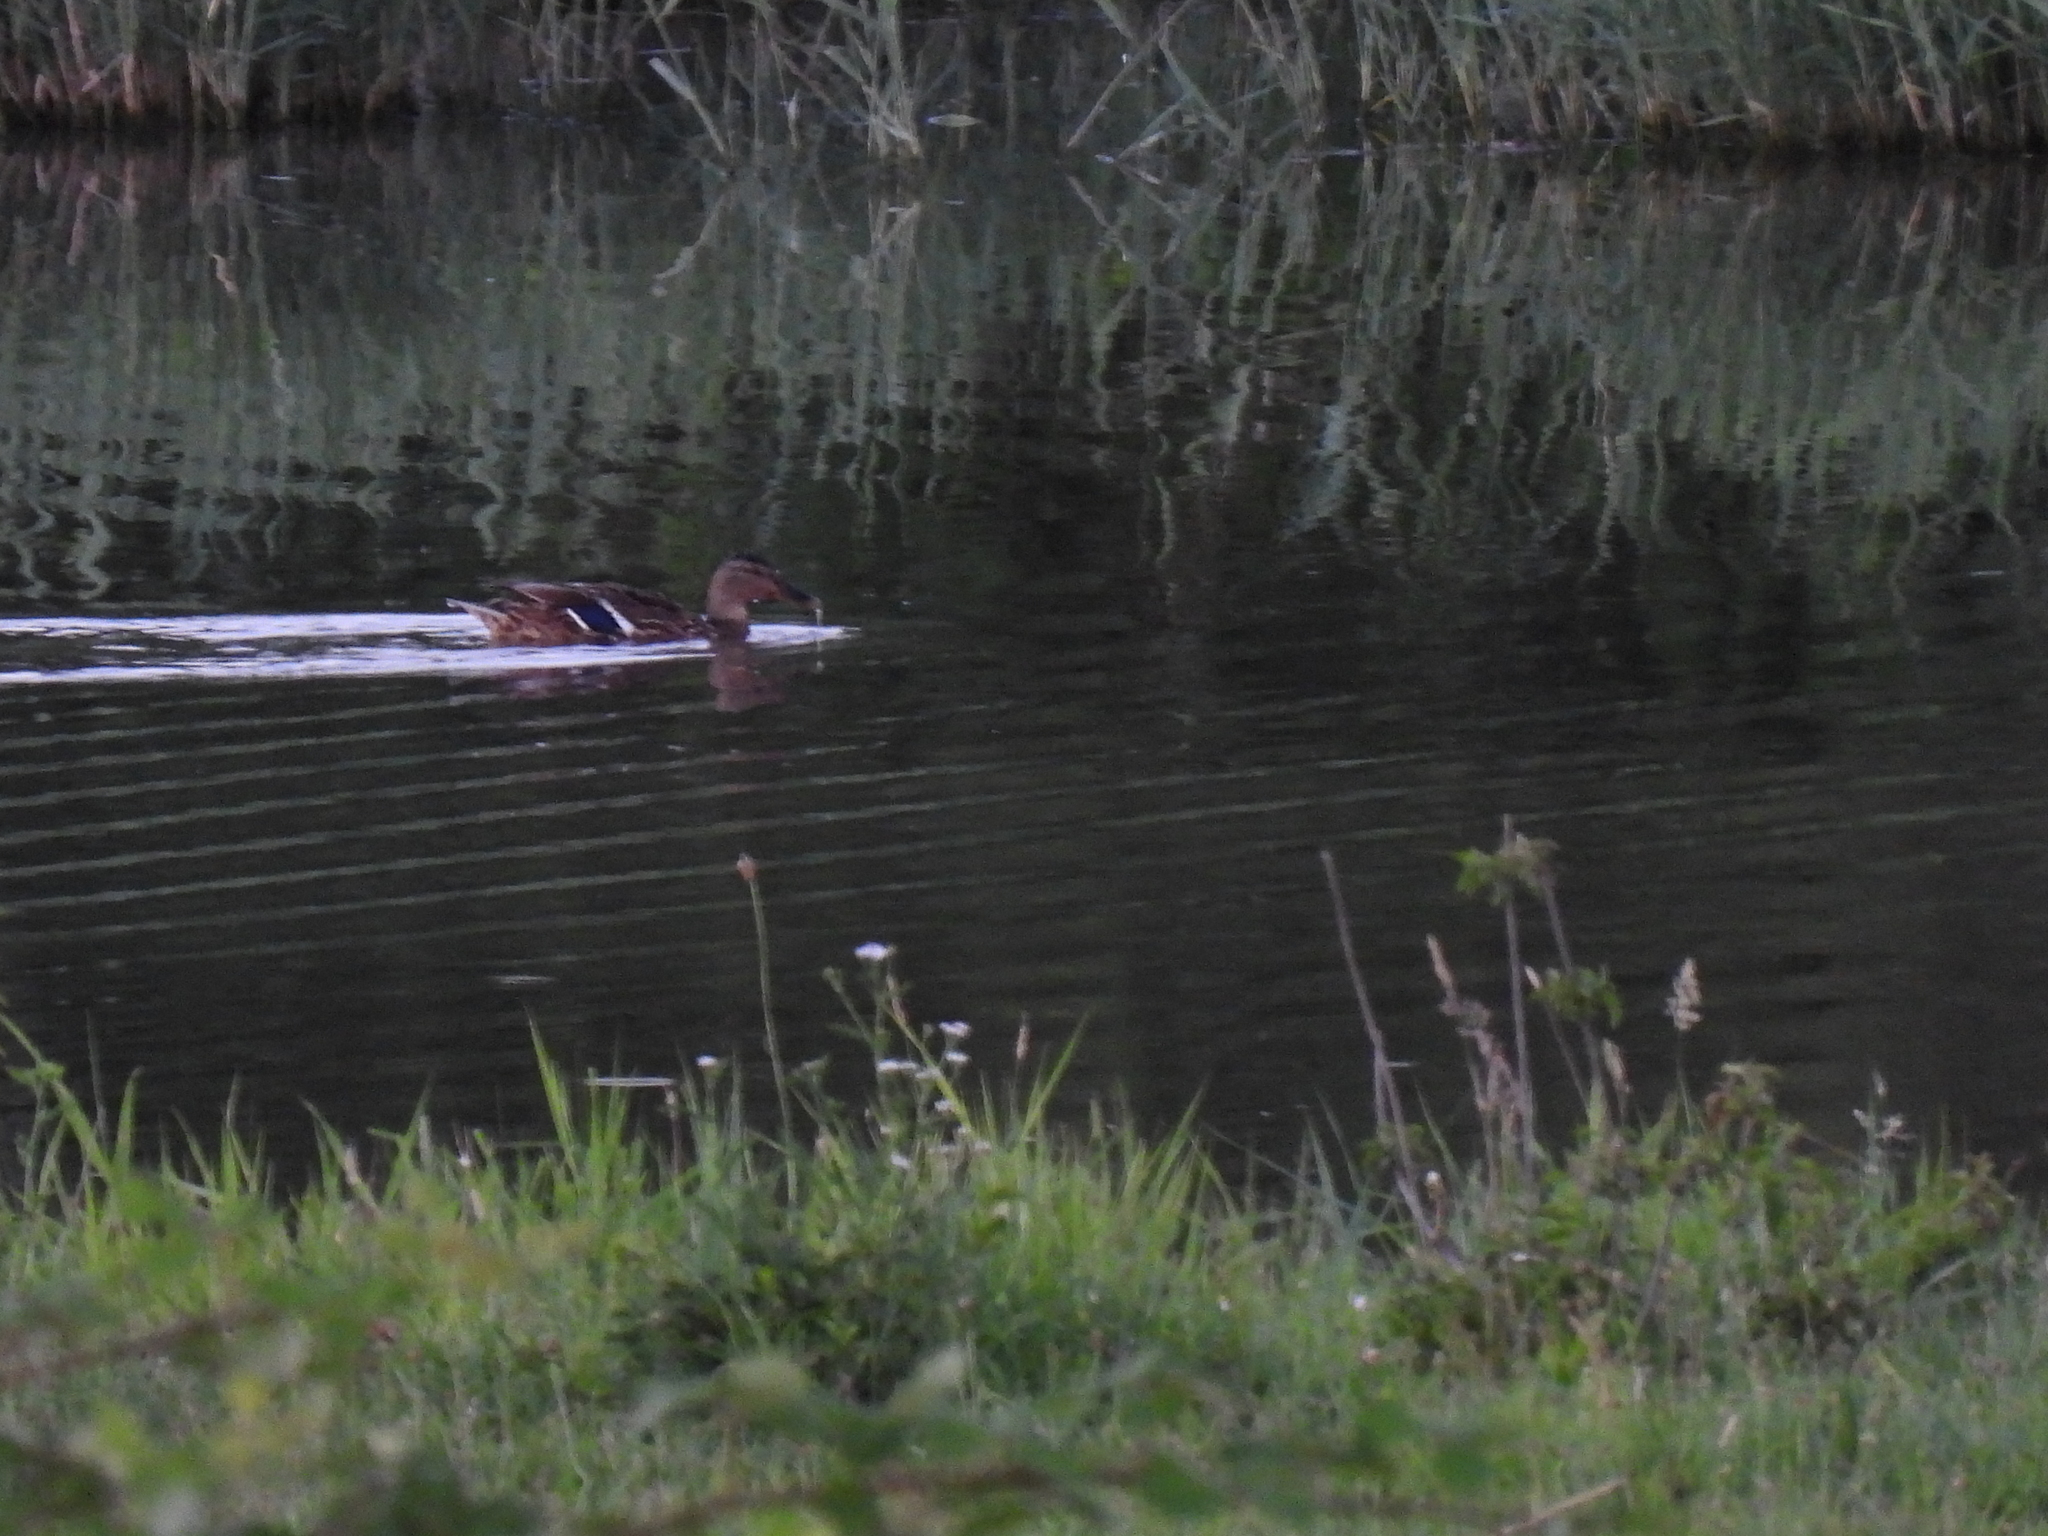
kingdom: Animalia
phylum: Chordata
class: Aves
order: Anseriformes
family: Anatidae
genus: Anas
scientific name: Anas platyrhynchos
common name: Mallard
